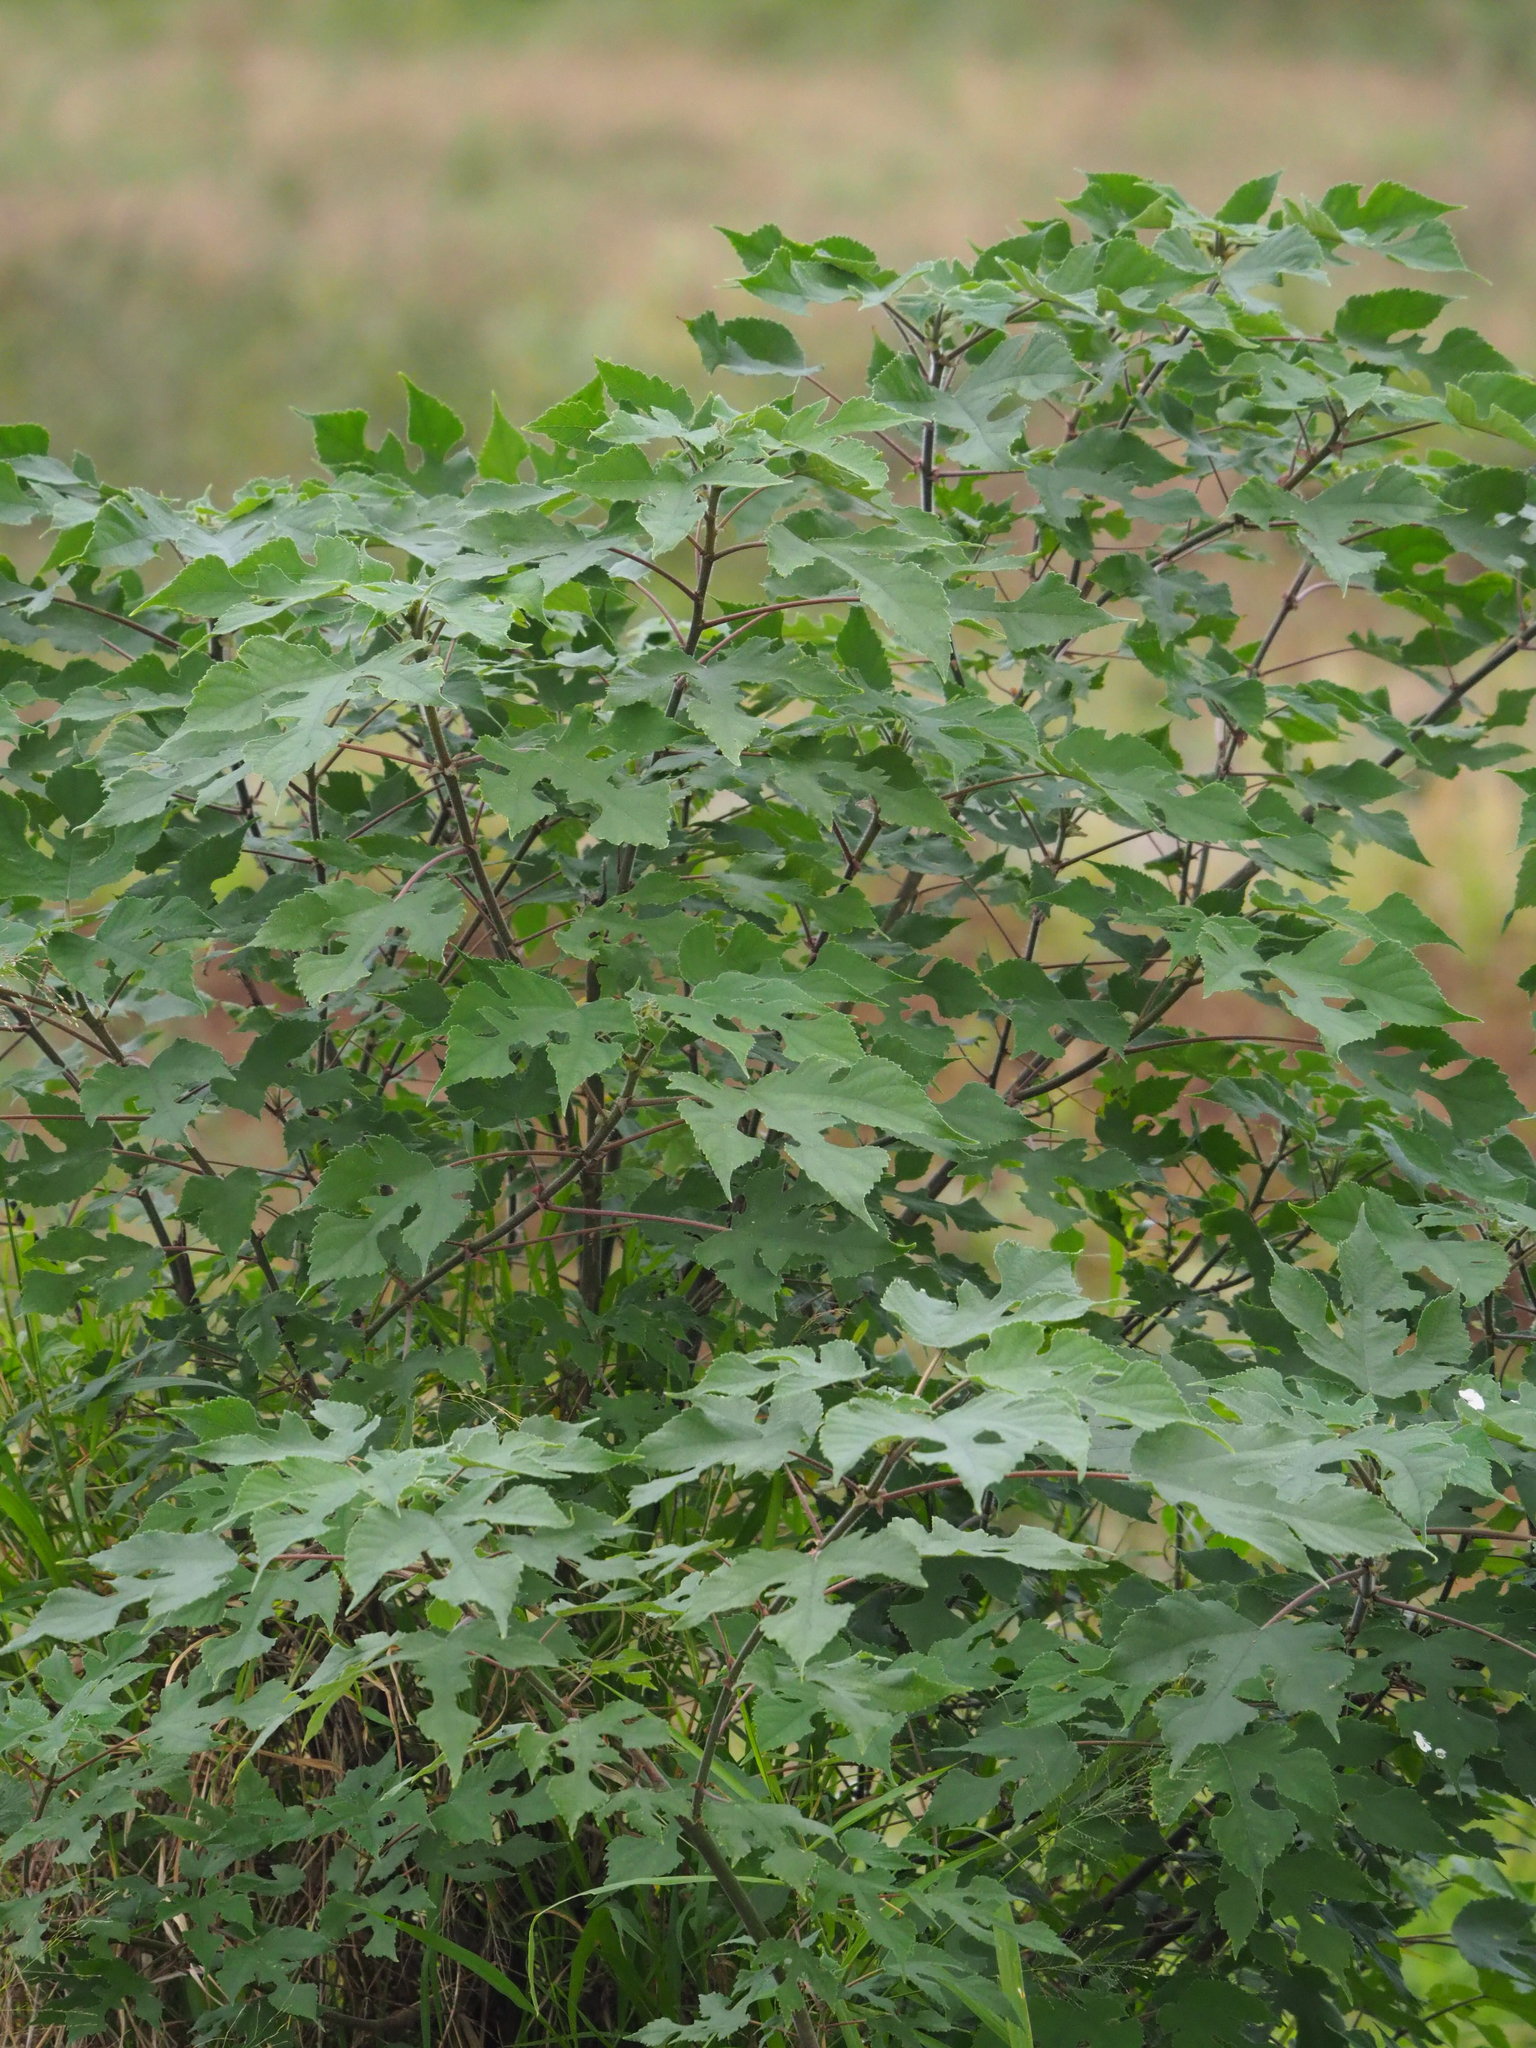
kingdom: Plantae
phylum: Tracheophyta
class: Magnoliopsida
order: Rosales
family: Moraceae
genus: Broussonetia
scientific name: Broussonetia papyrifera
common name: Paper mulberry
